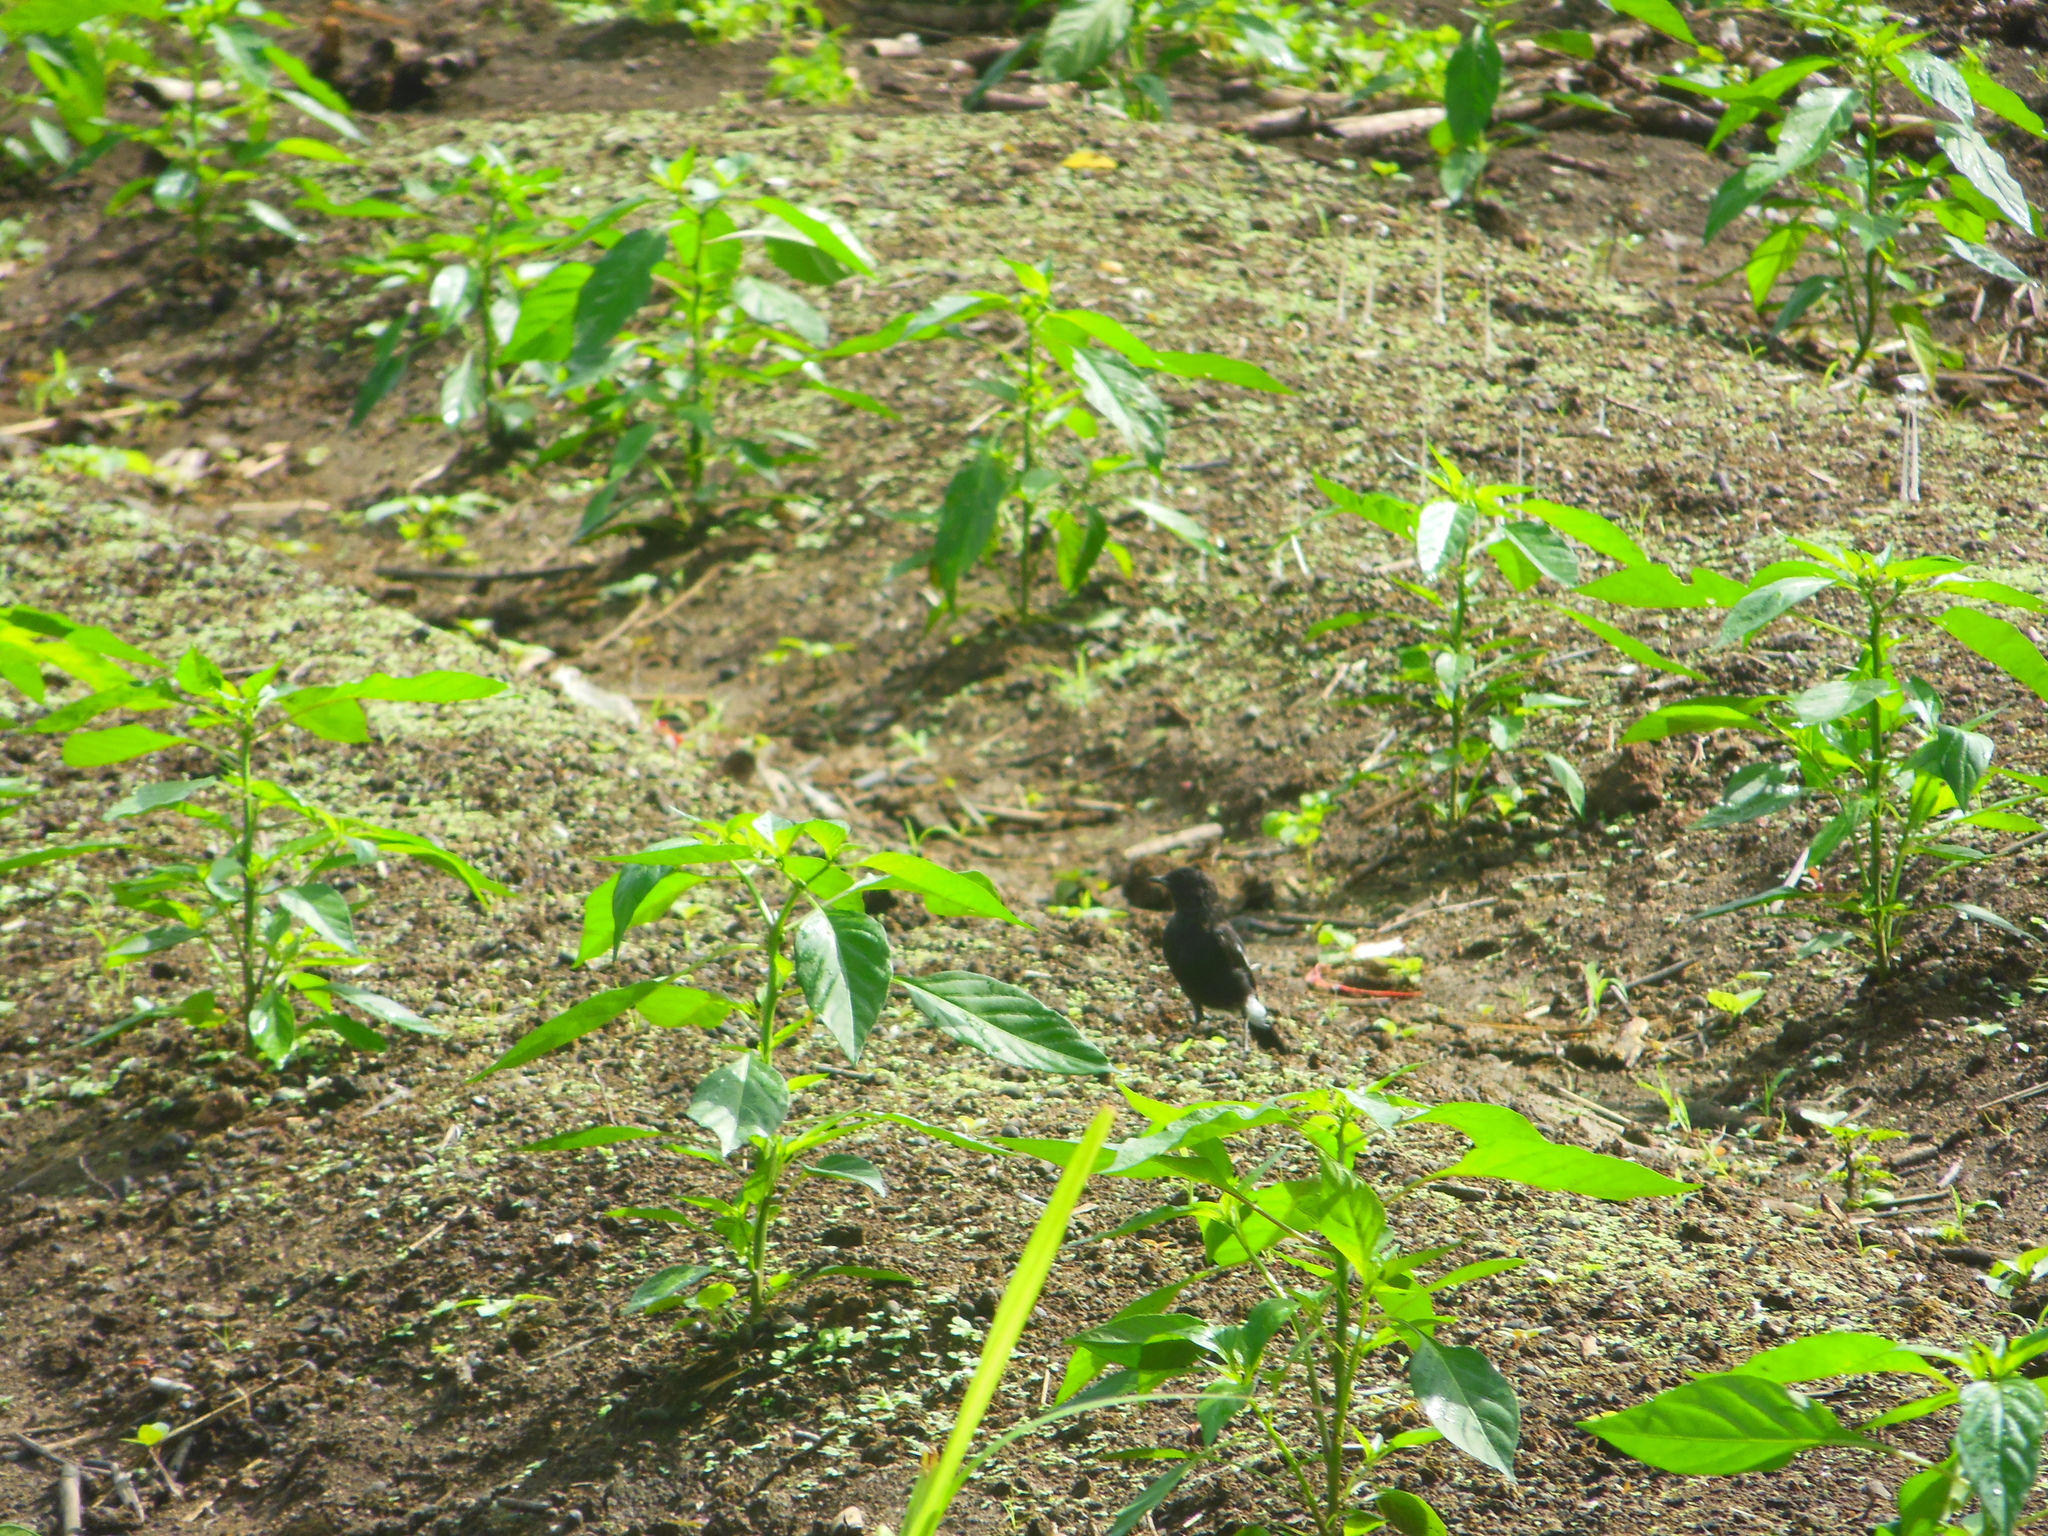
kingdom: Animalia
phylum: Chordata
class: Aves
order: Passeriformes
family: Muscicapidae
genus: Saxicola
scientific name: Saxicola caprata
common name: Pied bush chat
